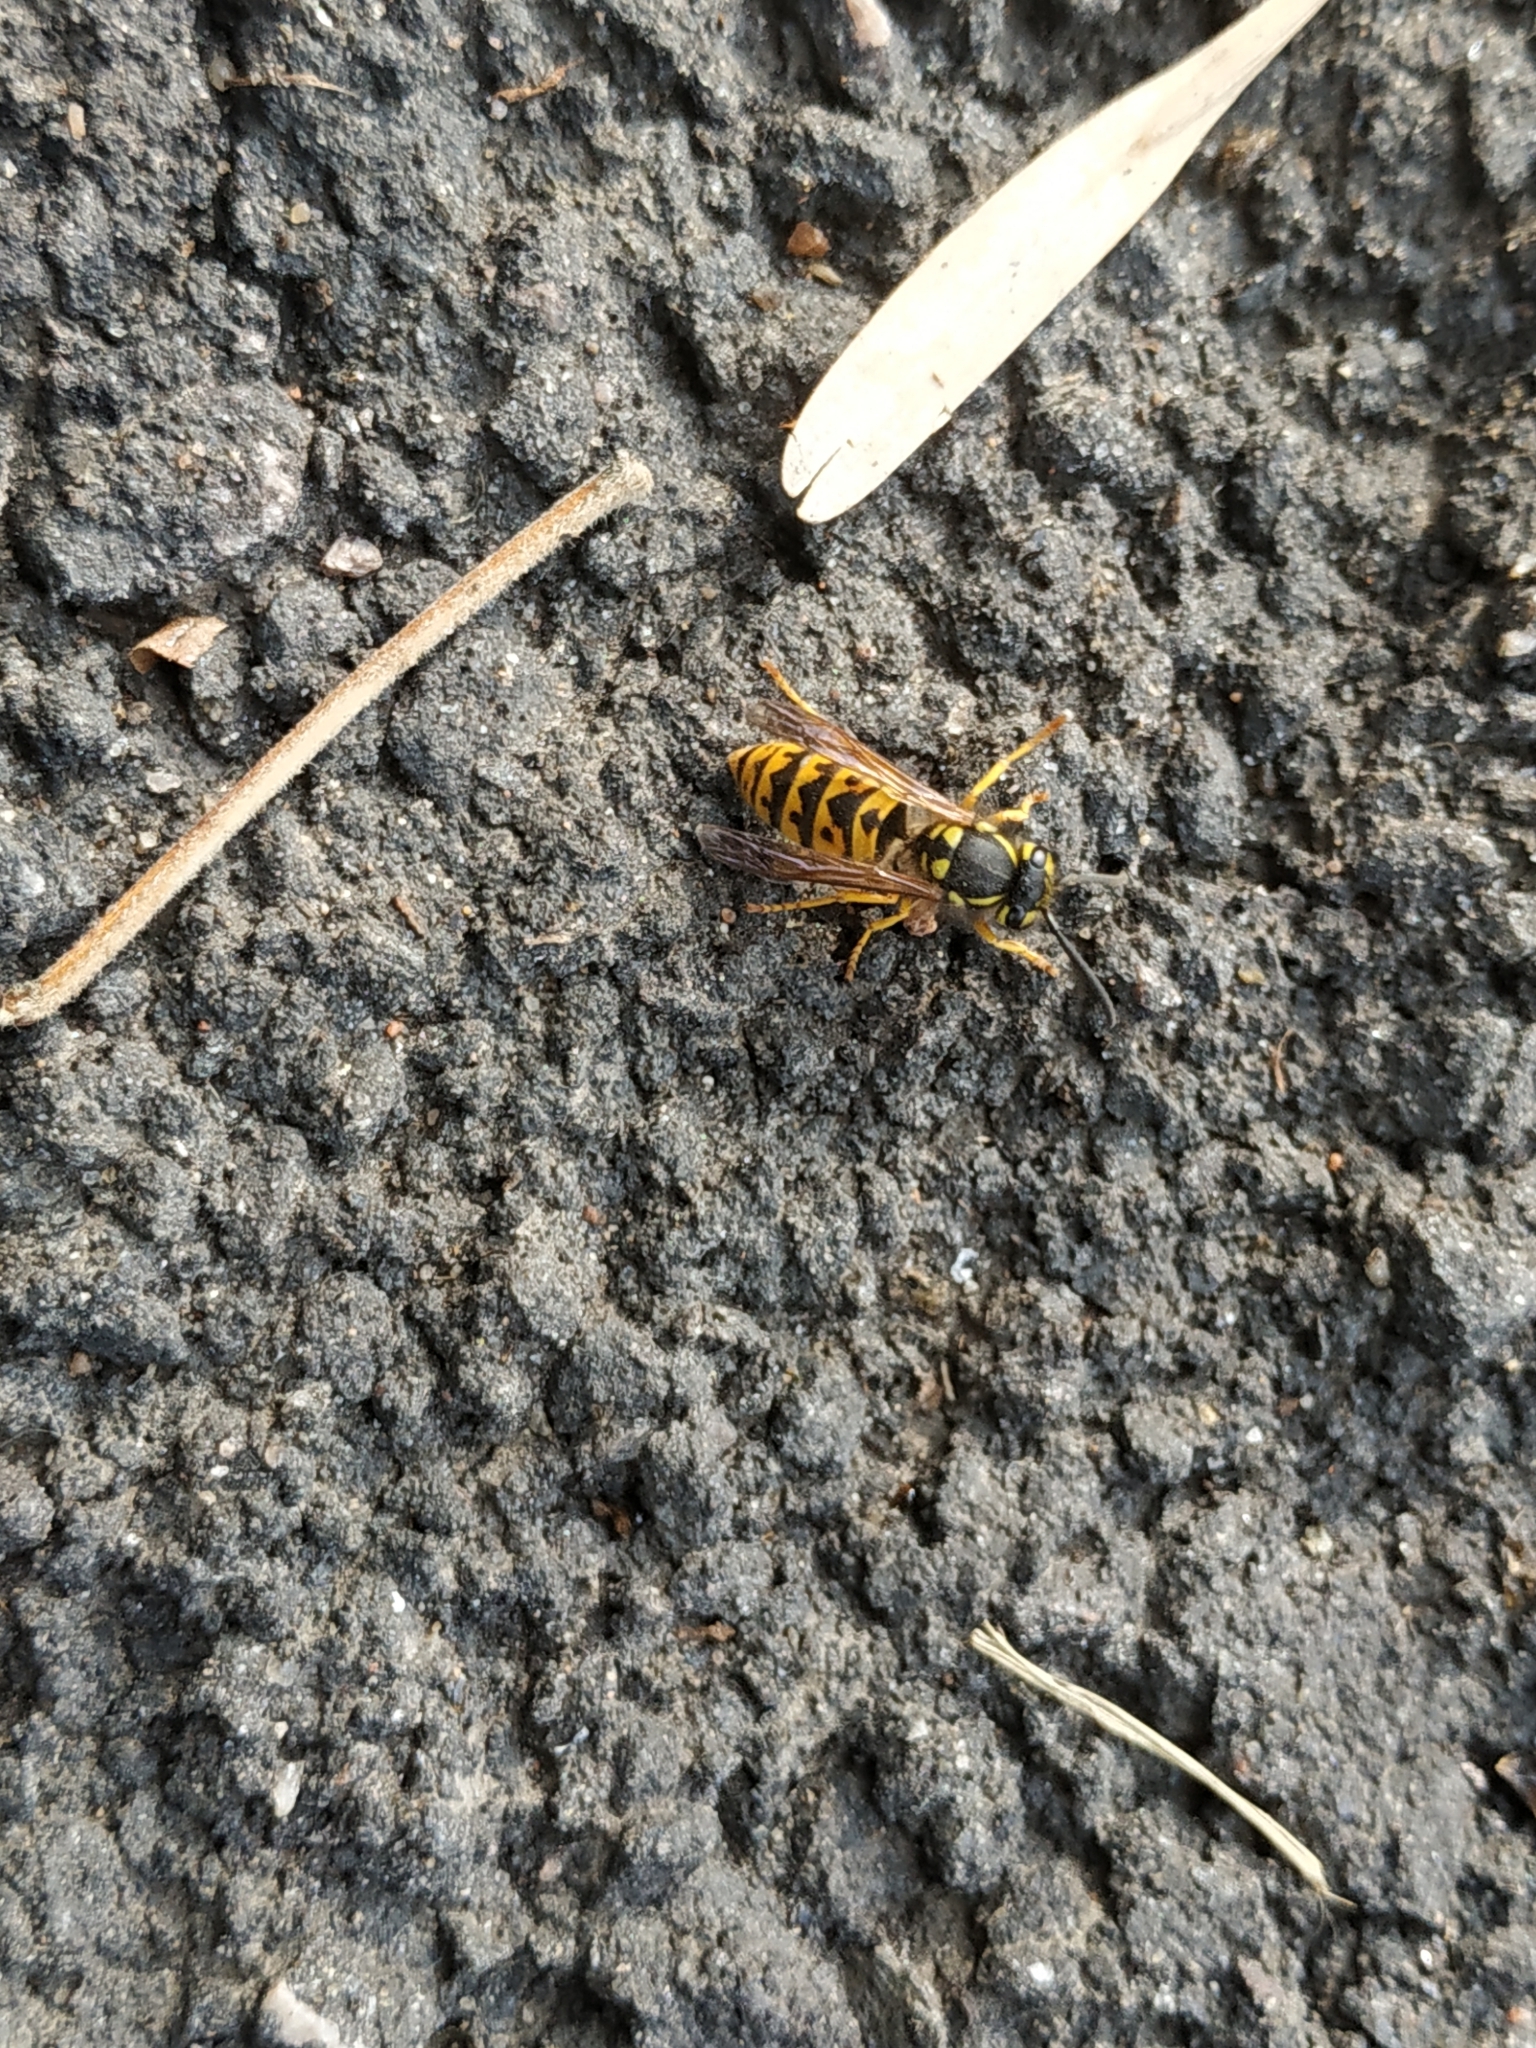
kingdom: Animalia
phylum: Arthropoda
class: Insecta
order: Hymenoptera
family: Vespidae
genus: Vespula
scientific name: Vespula germanica
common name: German wasp
